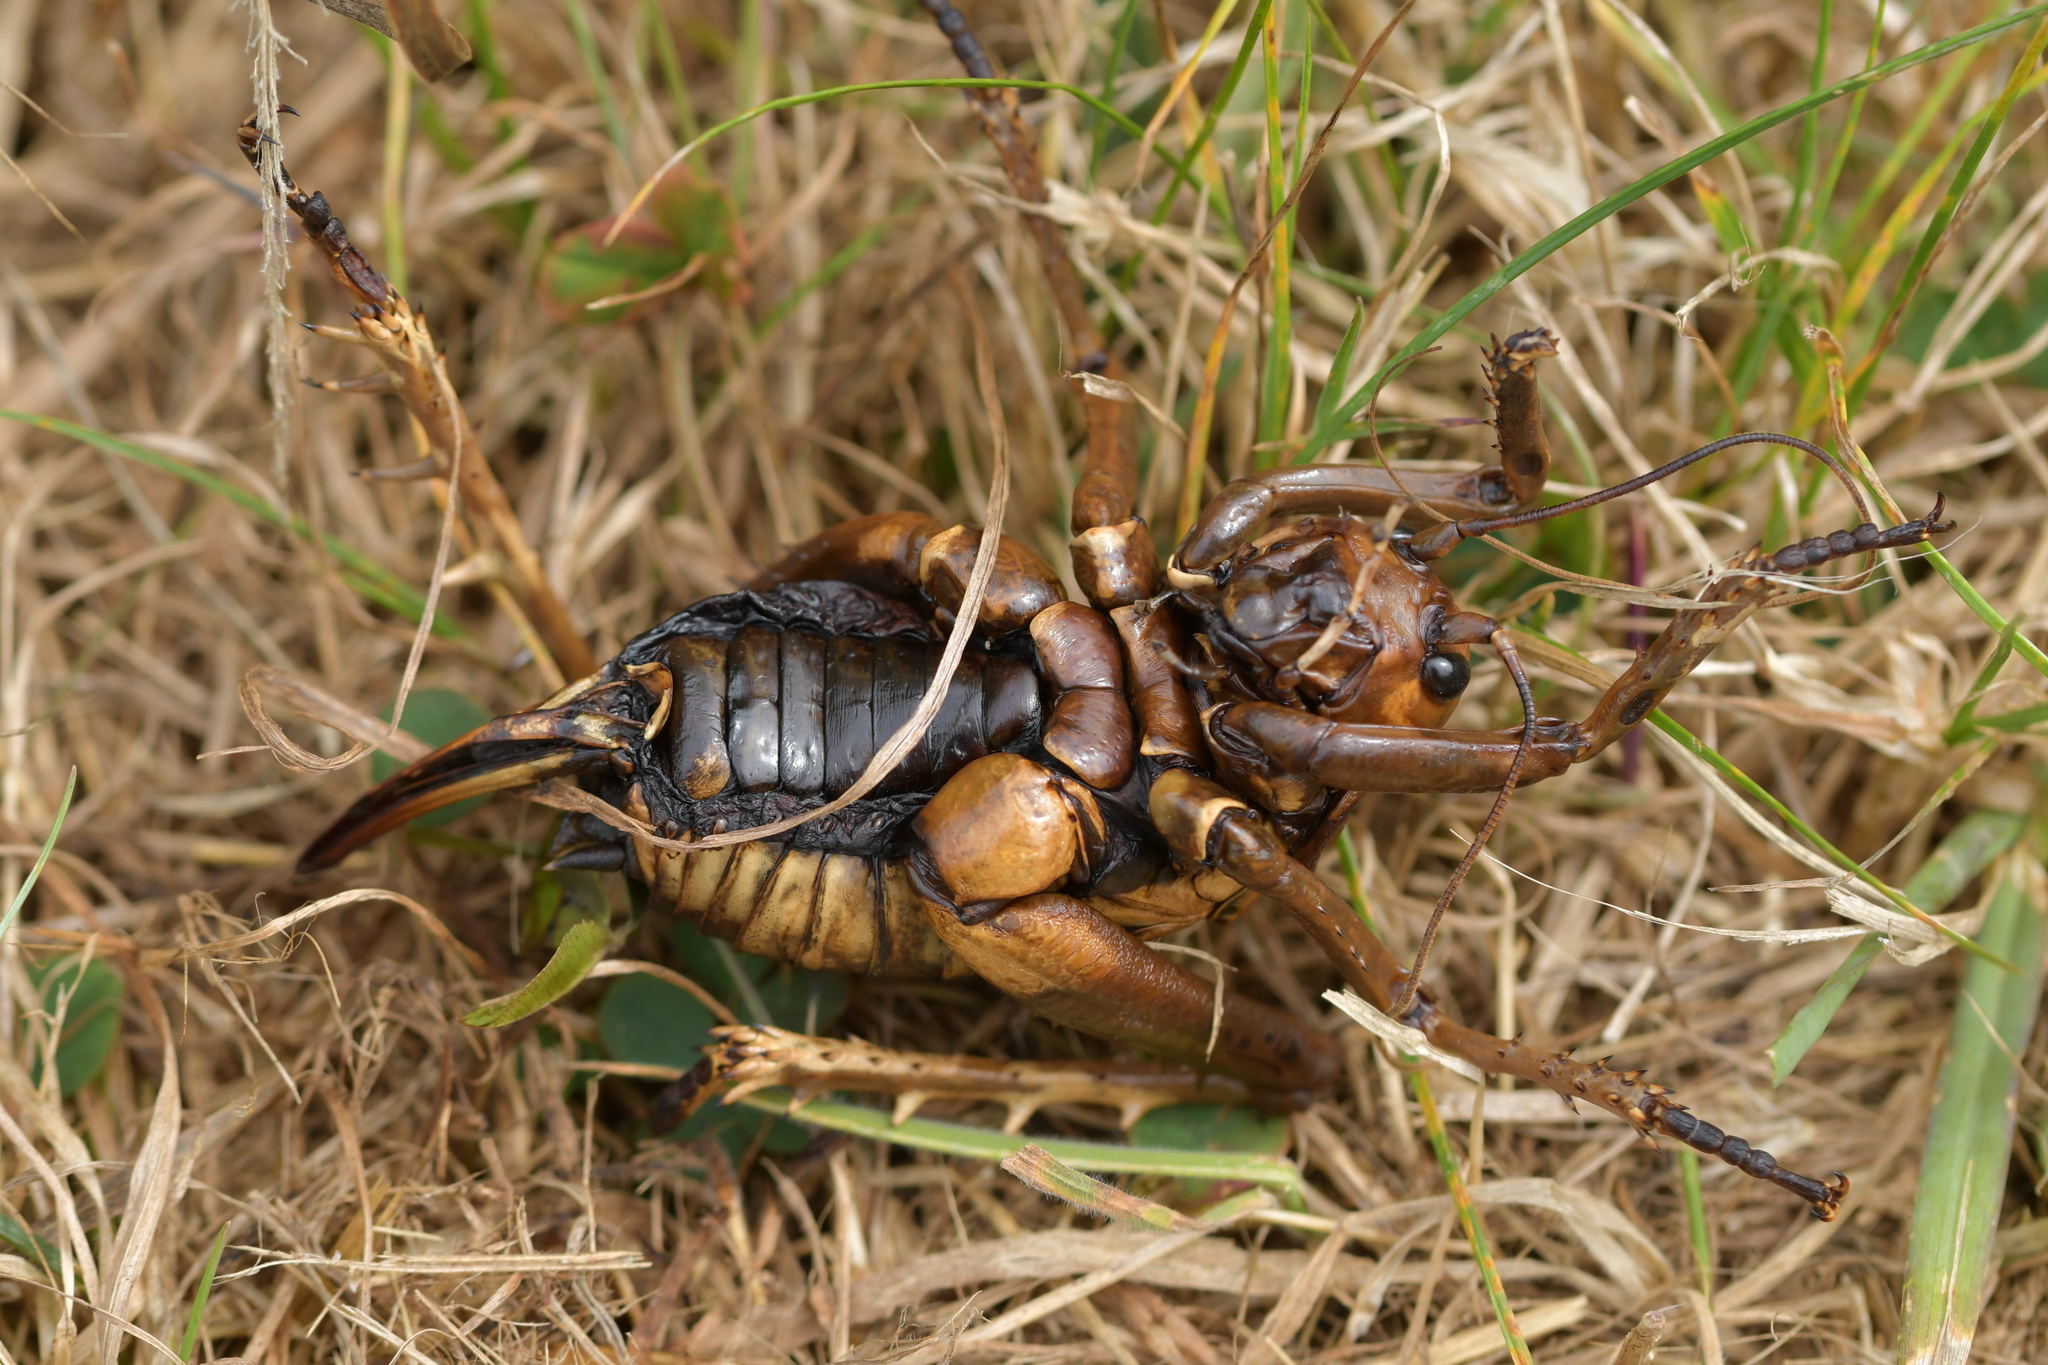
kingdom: Animalia
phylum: Arthropoda
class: Insecta
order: Orthoptera
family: Anostostomatidae
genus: Deinacrida
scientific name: Deinacrida rugosa
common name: Stephens island weta
